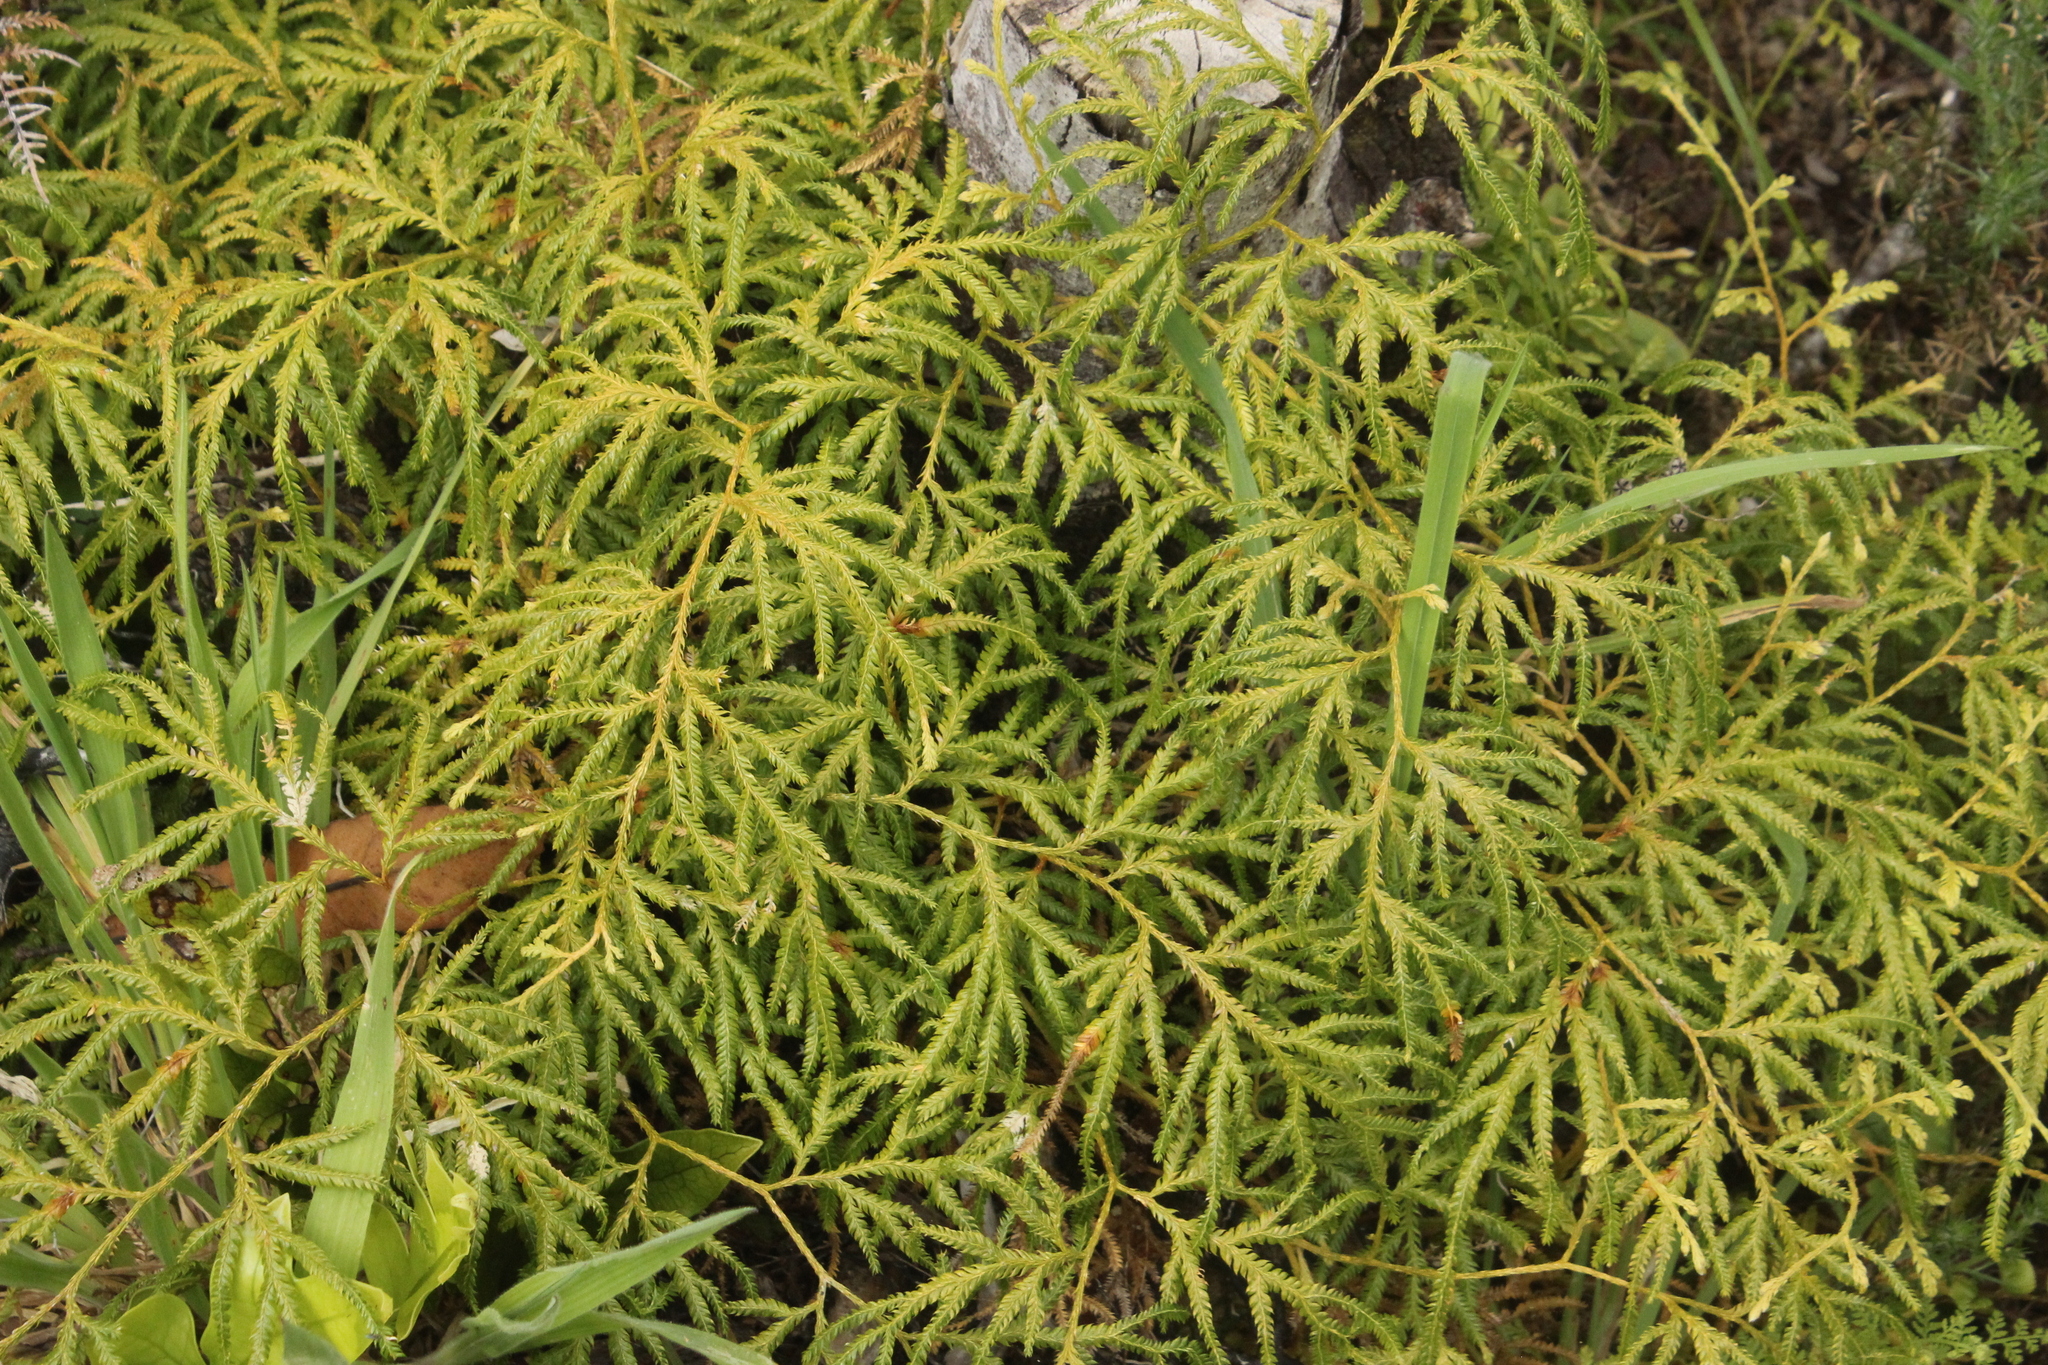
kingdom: Plantae
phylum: Tracheophyta
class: Lycopodiopsida
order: Lycopodiales
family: Lycopodiaceae
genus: Lycopodium
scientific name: Lycopodium volubile
